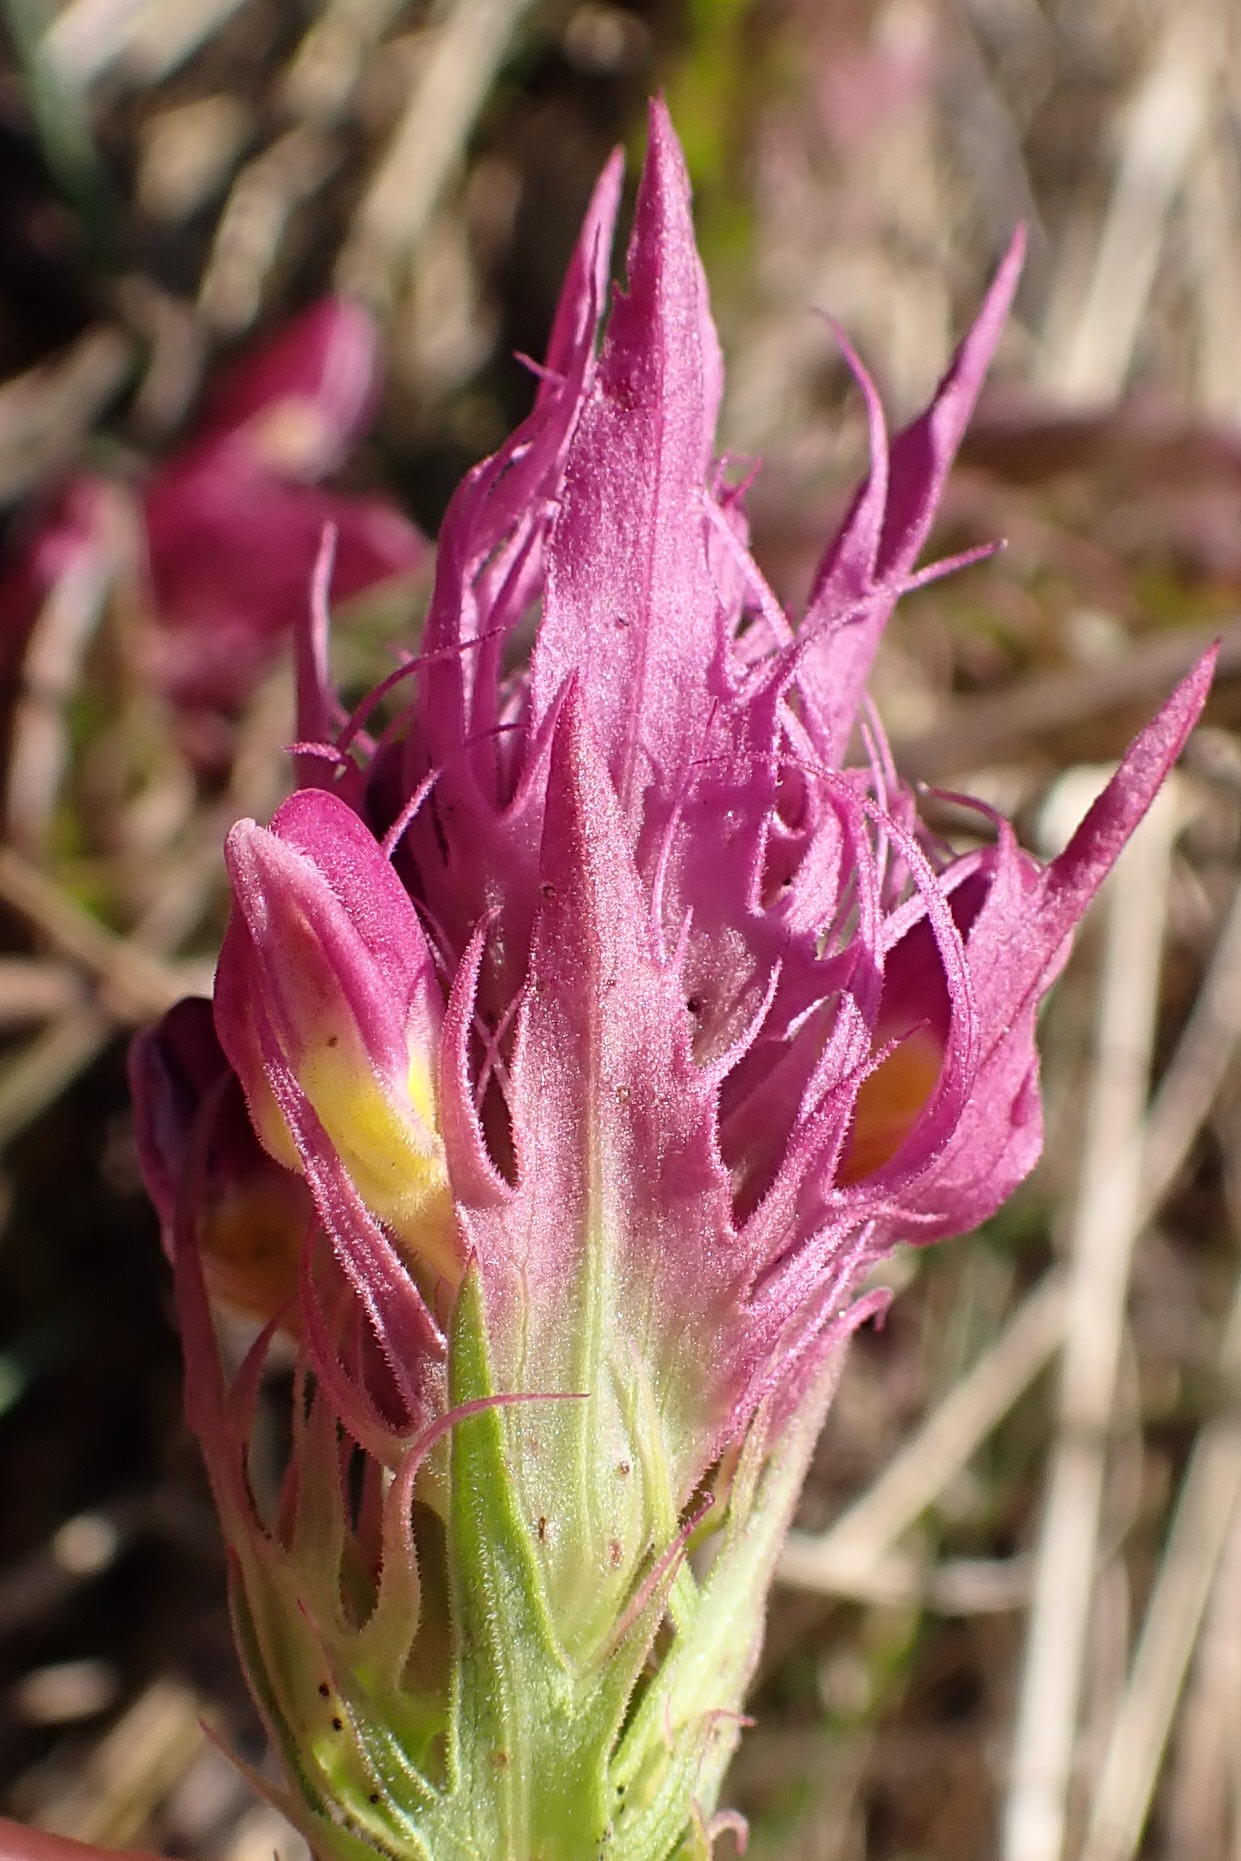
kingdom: Plantae
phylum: Tracheophyta
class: Magnoliopsida
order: Lamiales
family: Orobanchaceae
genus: Melampyrum
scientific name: Melampyrum arvense
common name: Field cow-wheat
